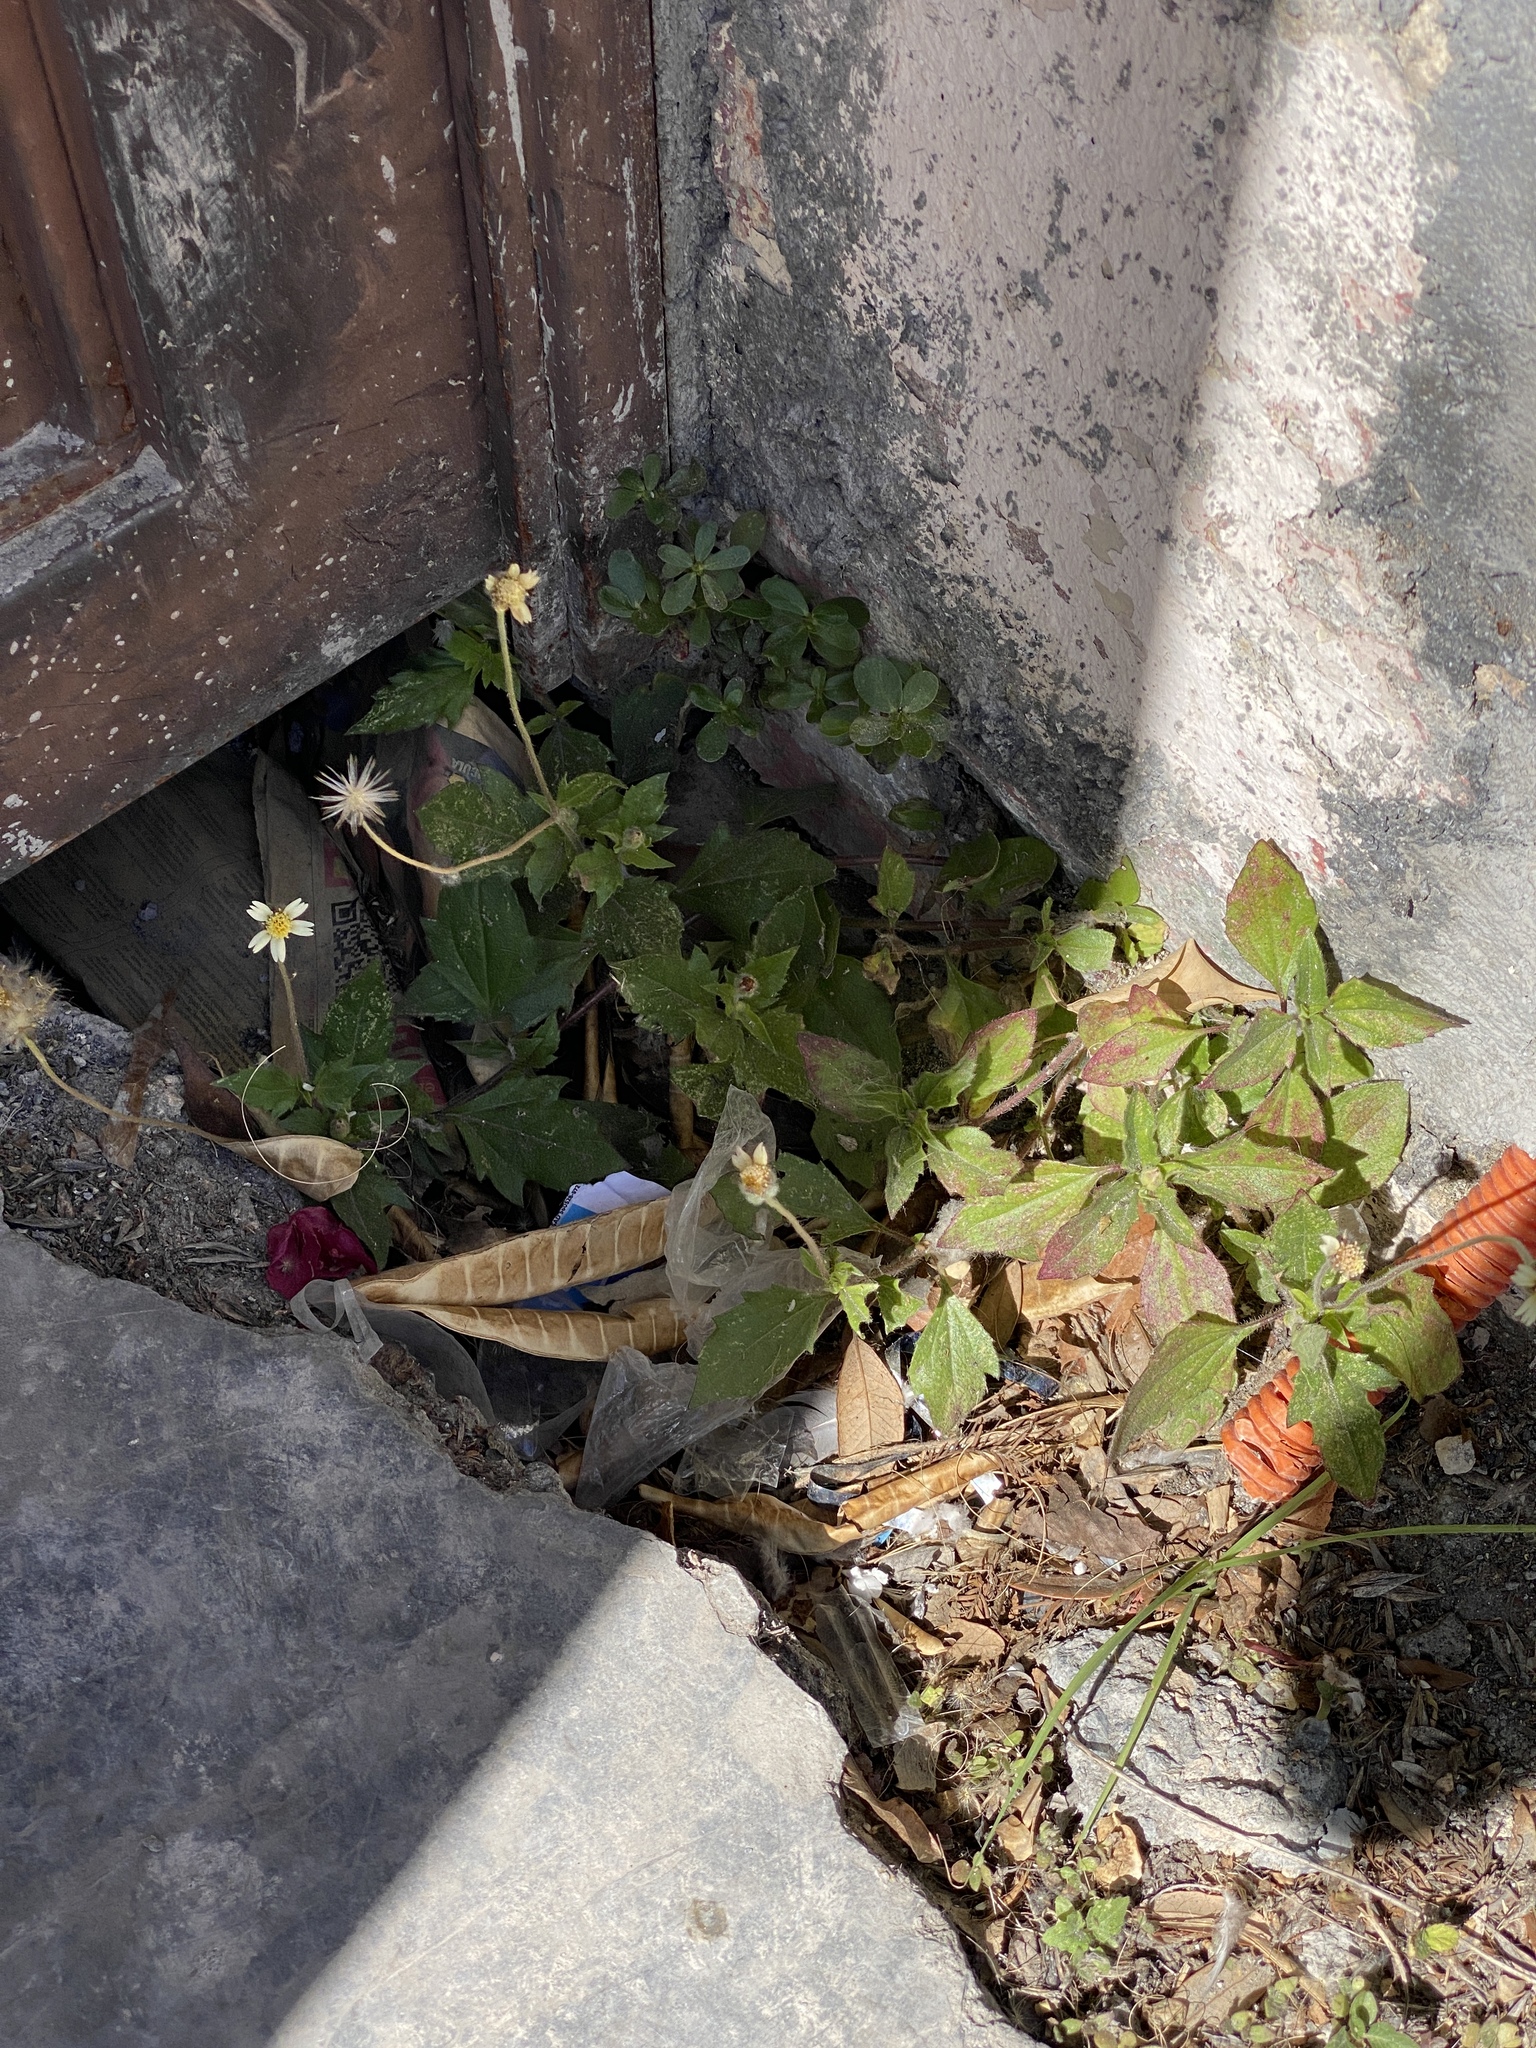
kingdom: Plantae
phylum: Tracheophyta
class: Magnoliopsida
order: Asterales
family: Asteraceae
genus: Tridax
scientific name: Tridax procumbens
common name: Coatbuttons
